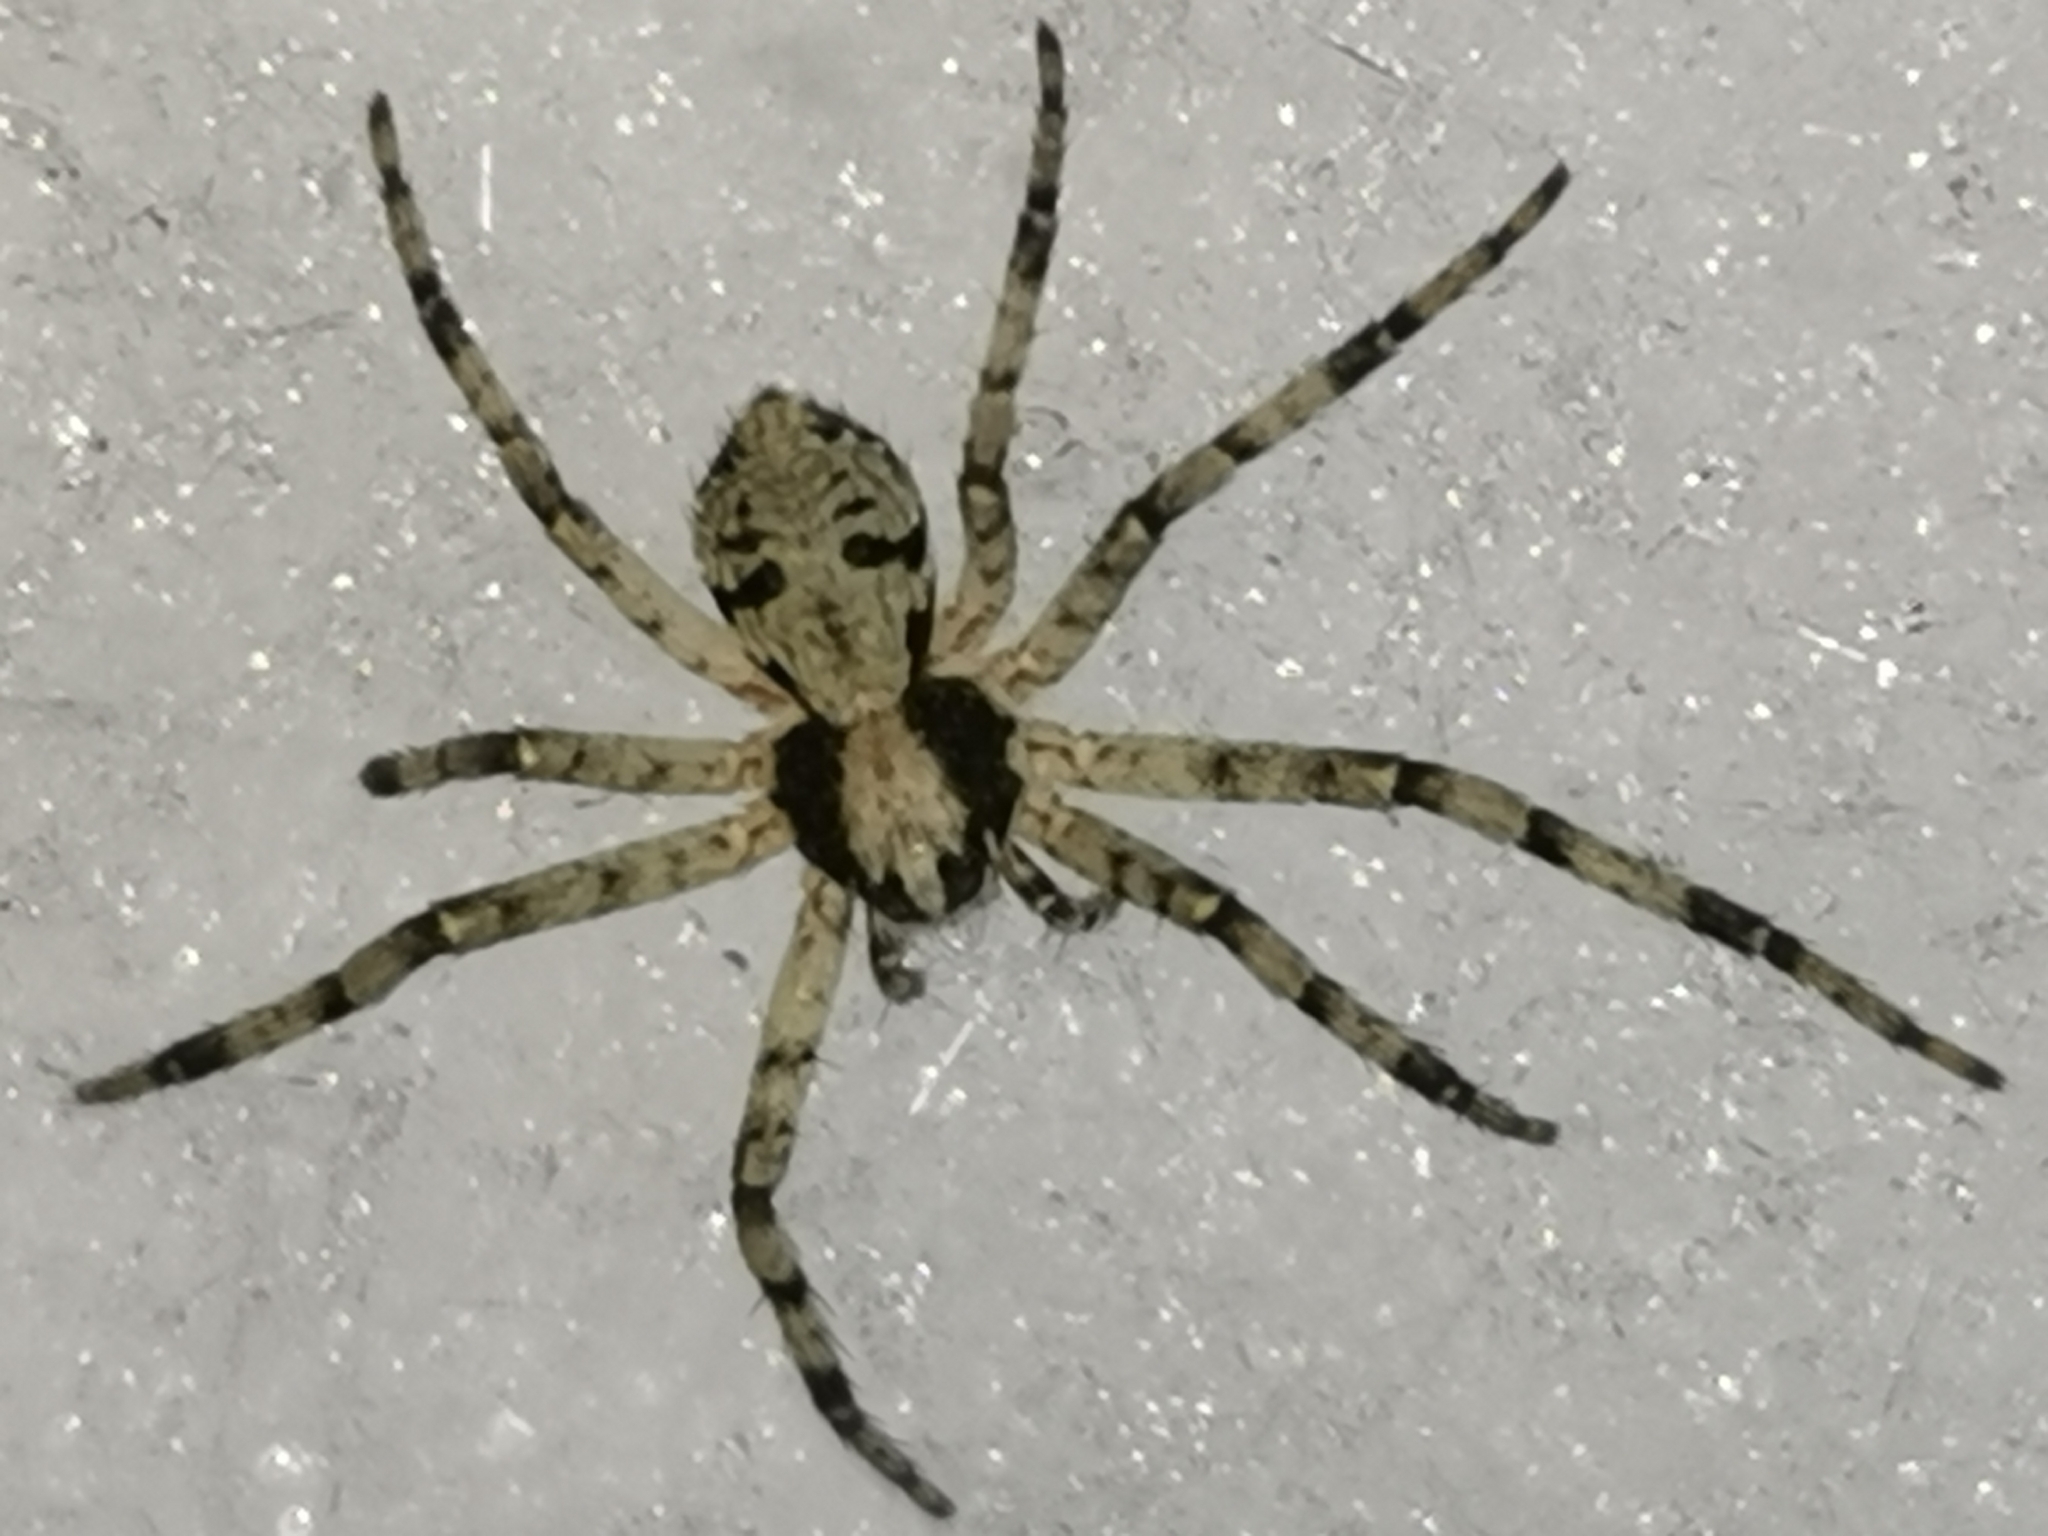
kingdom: Animalia
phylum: Arthropoda
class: Arachnida
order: Araneae
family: Philodromidae
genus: Philodromus
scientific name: Philodromus margaritatus
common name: Lichen running-spider
